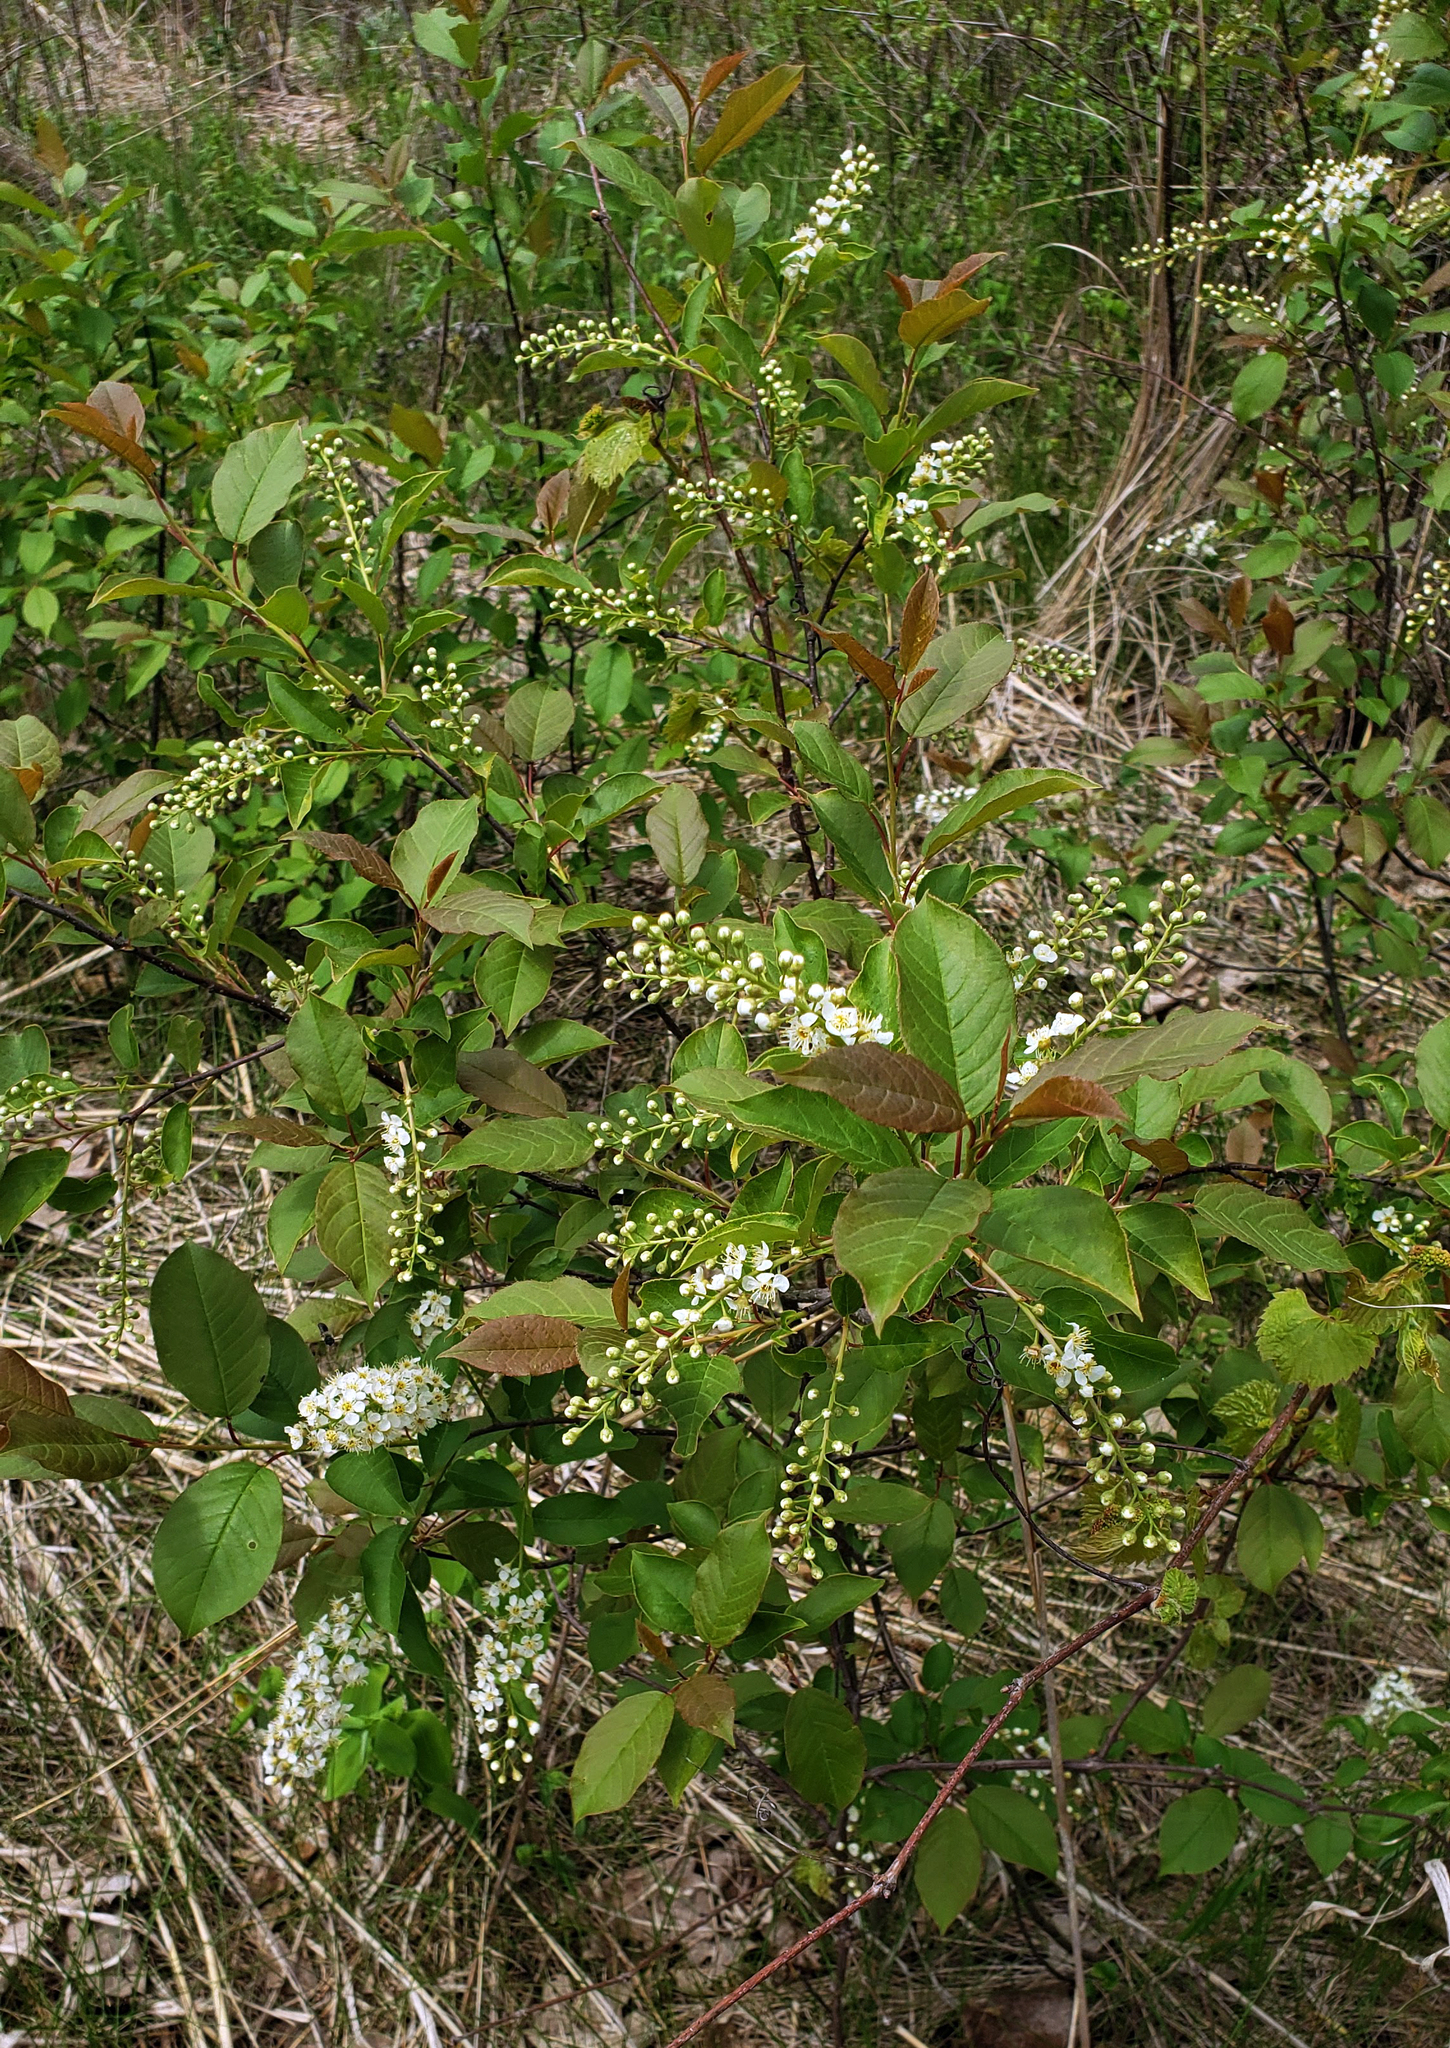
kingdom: Plantae
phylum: Tracheophyta
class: Magnoliopsida
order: Rosales
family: Rosaceae
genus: Prunus
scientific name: Prunus virginiana
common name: Chokecherry
